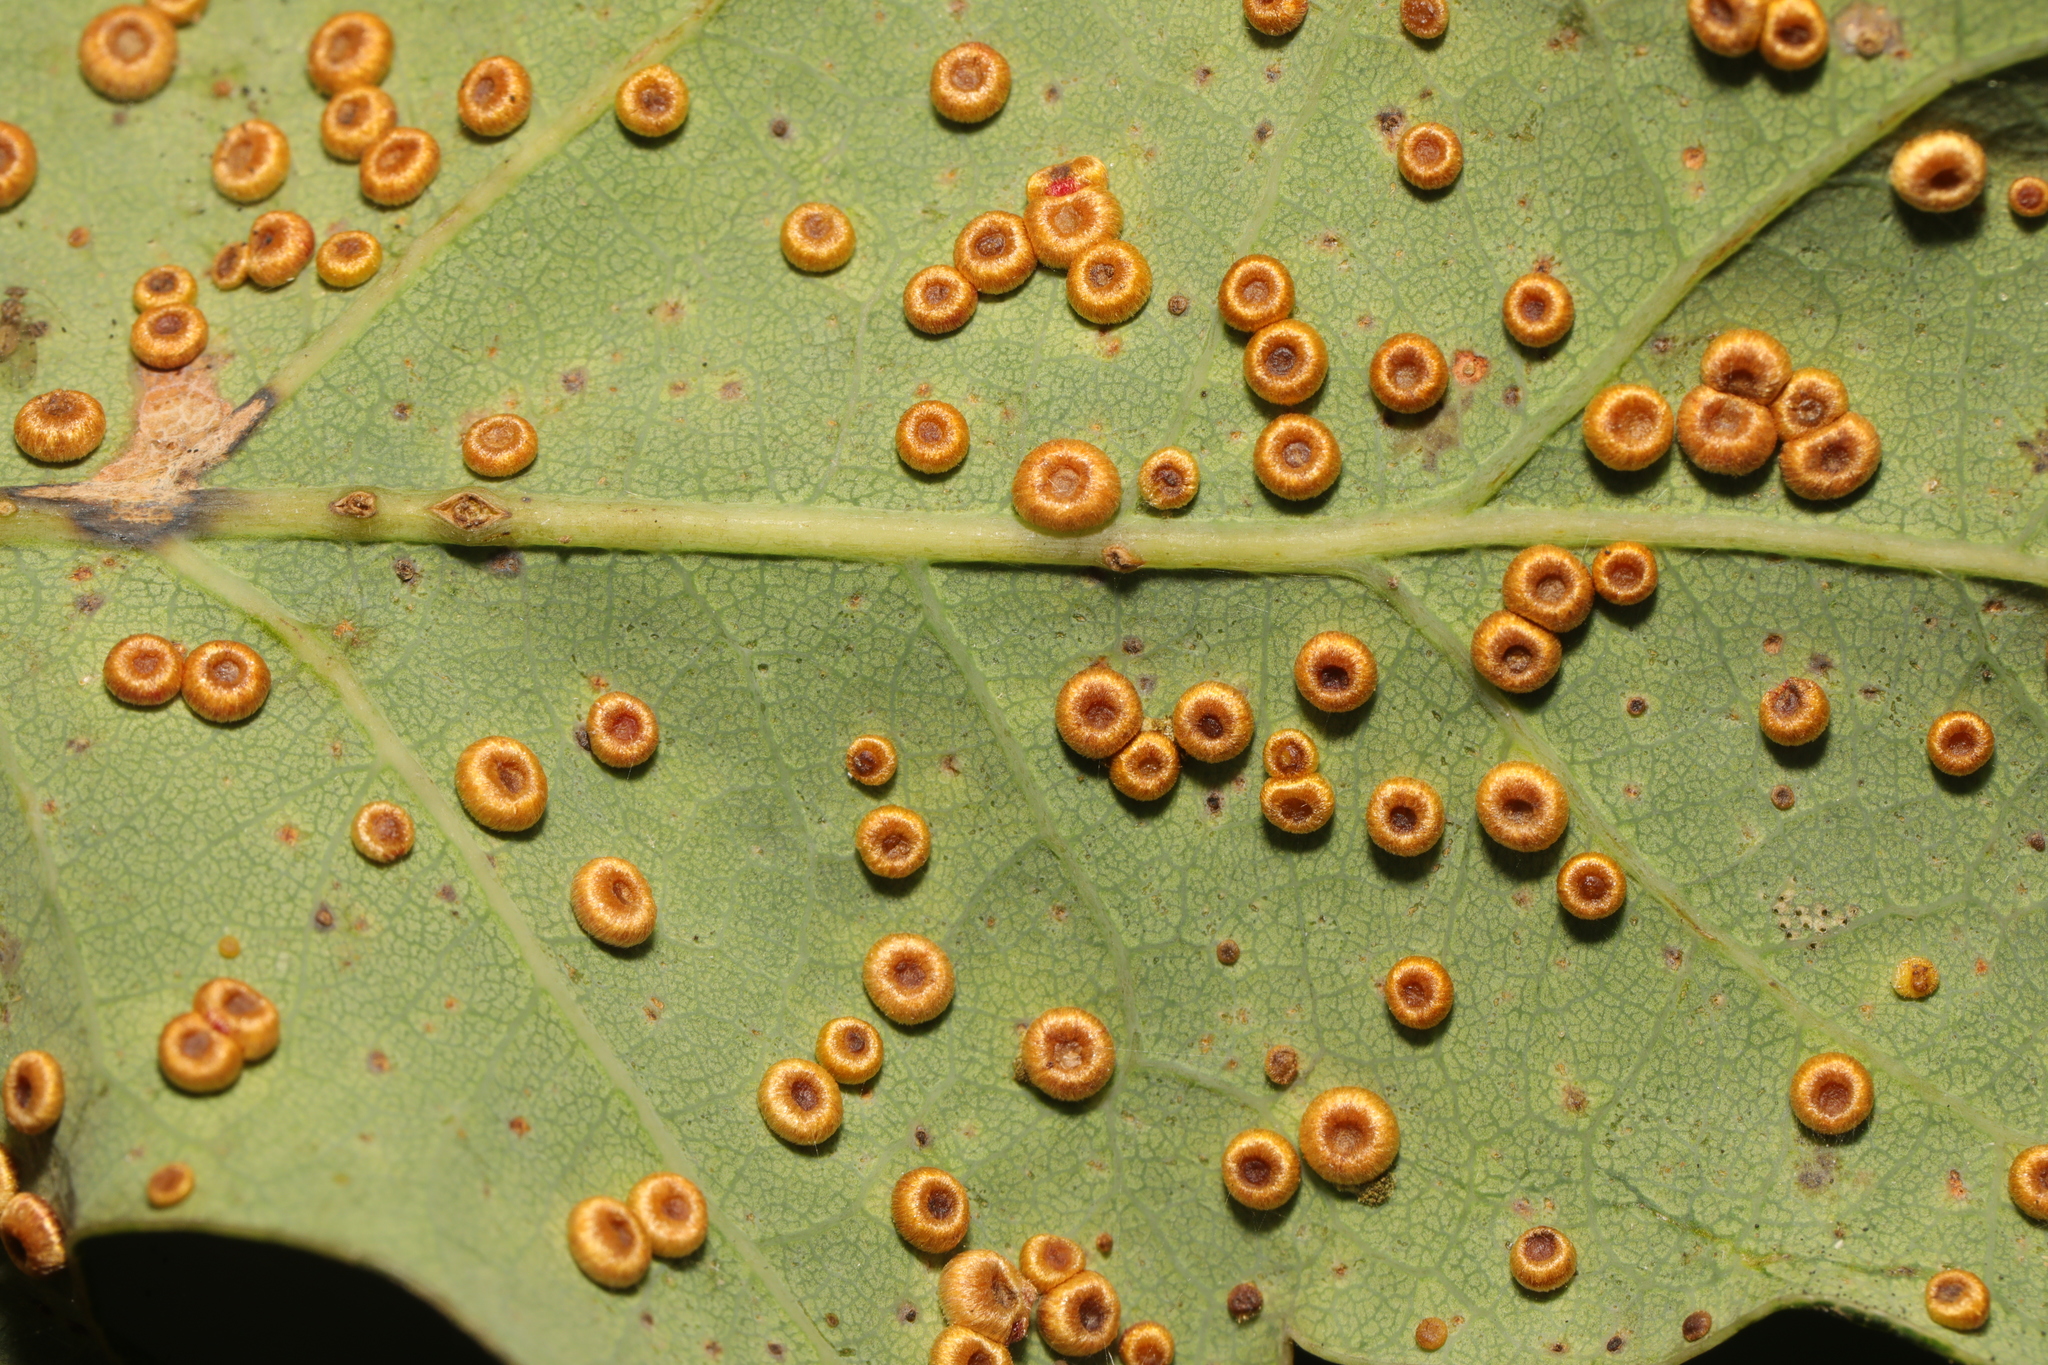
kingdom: Animalia
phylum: Arthropoda
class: Insecta
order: Hymenoptera
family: Cynipidae
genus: Neuroterus
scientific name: Neuroterus numismalis
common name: Silk-button spangle gall
